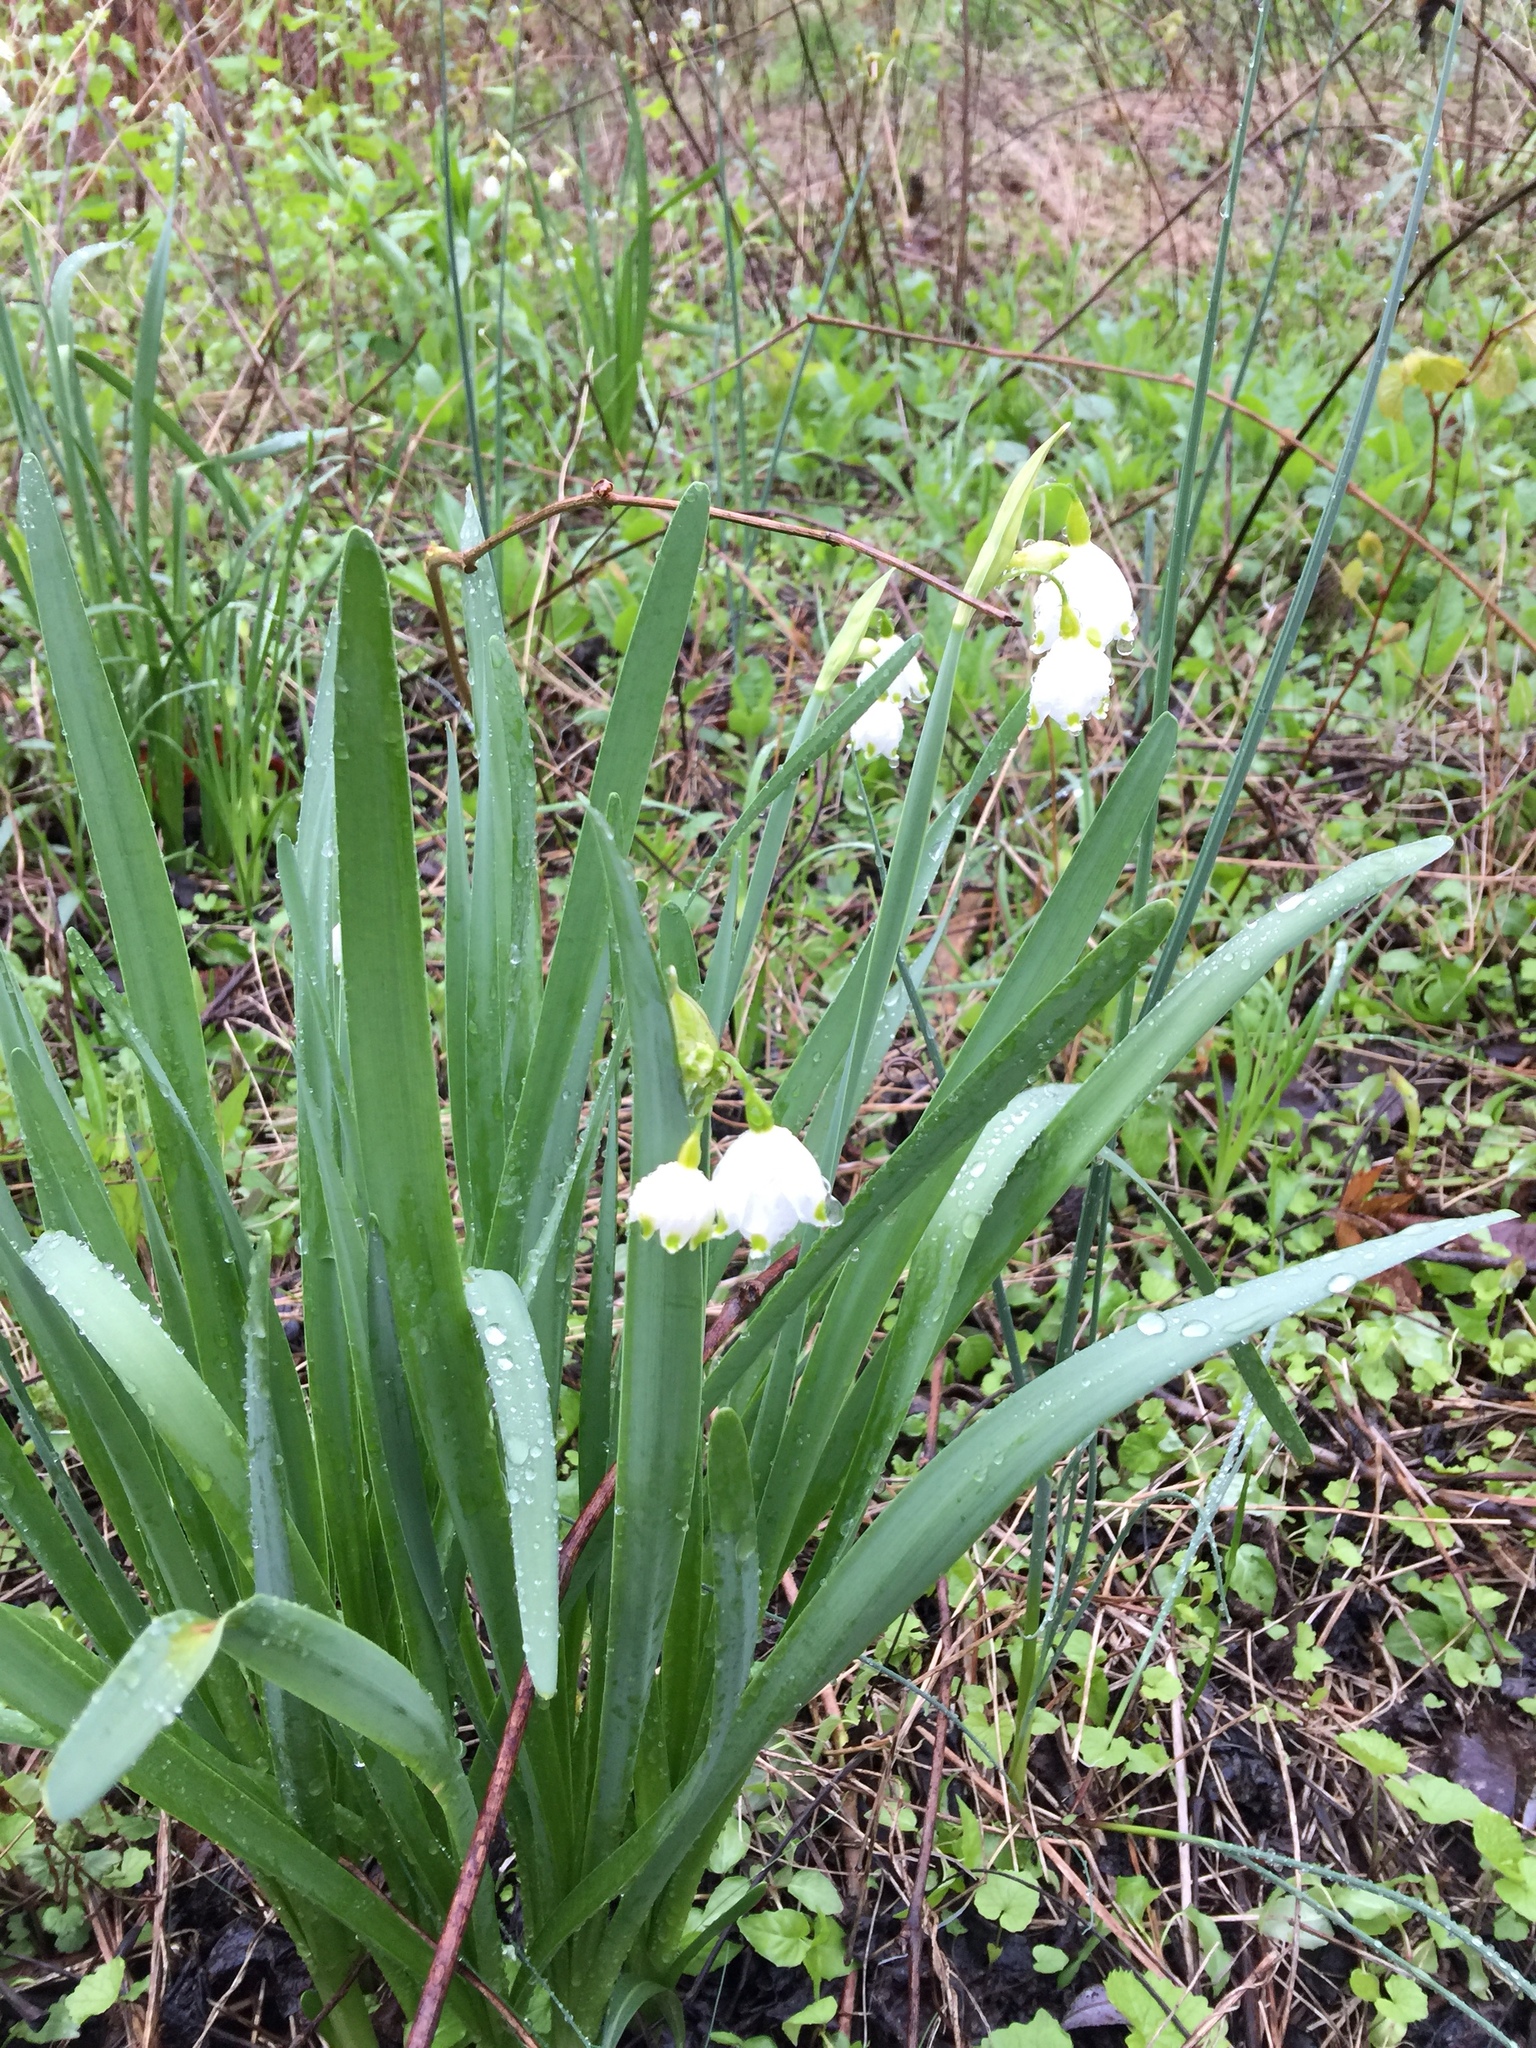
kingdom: Plantae
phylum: Tracheophyta
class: Liliopsida
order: Asparagales
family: Amaryllidaceae
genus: Leucojum
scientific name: Leucojum aestivum
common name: Summer snowflake
